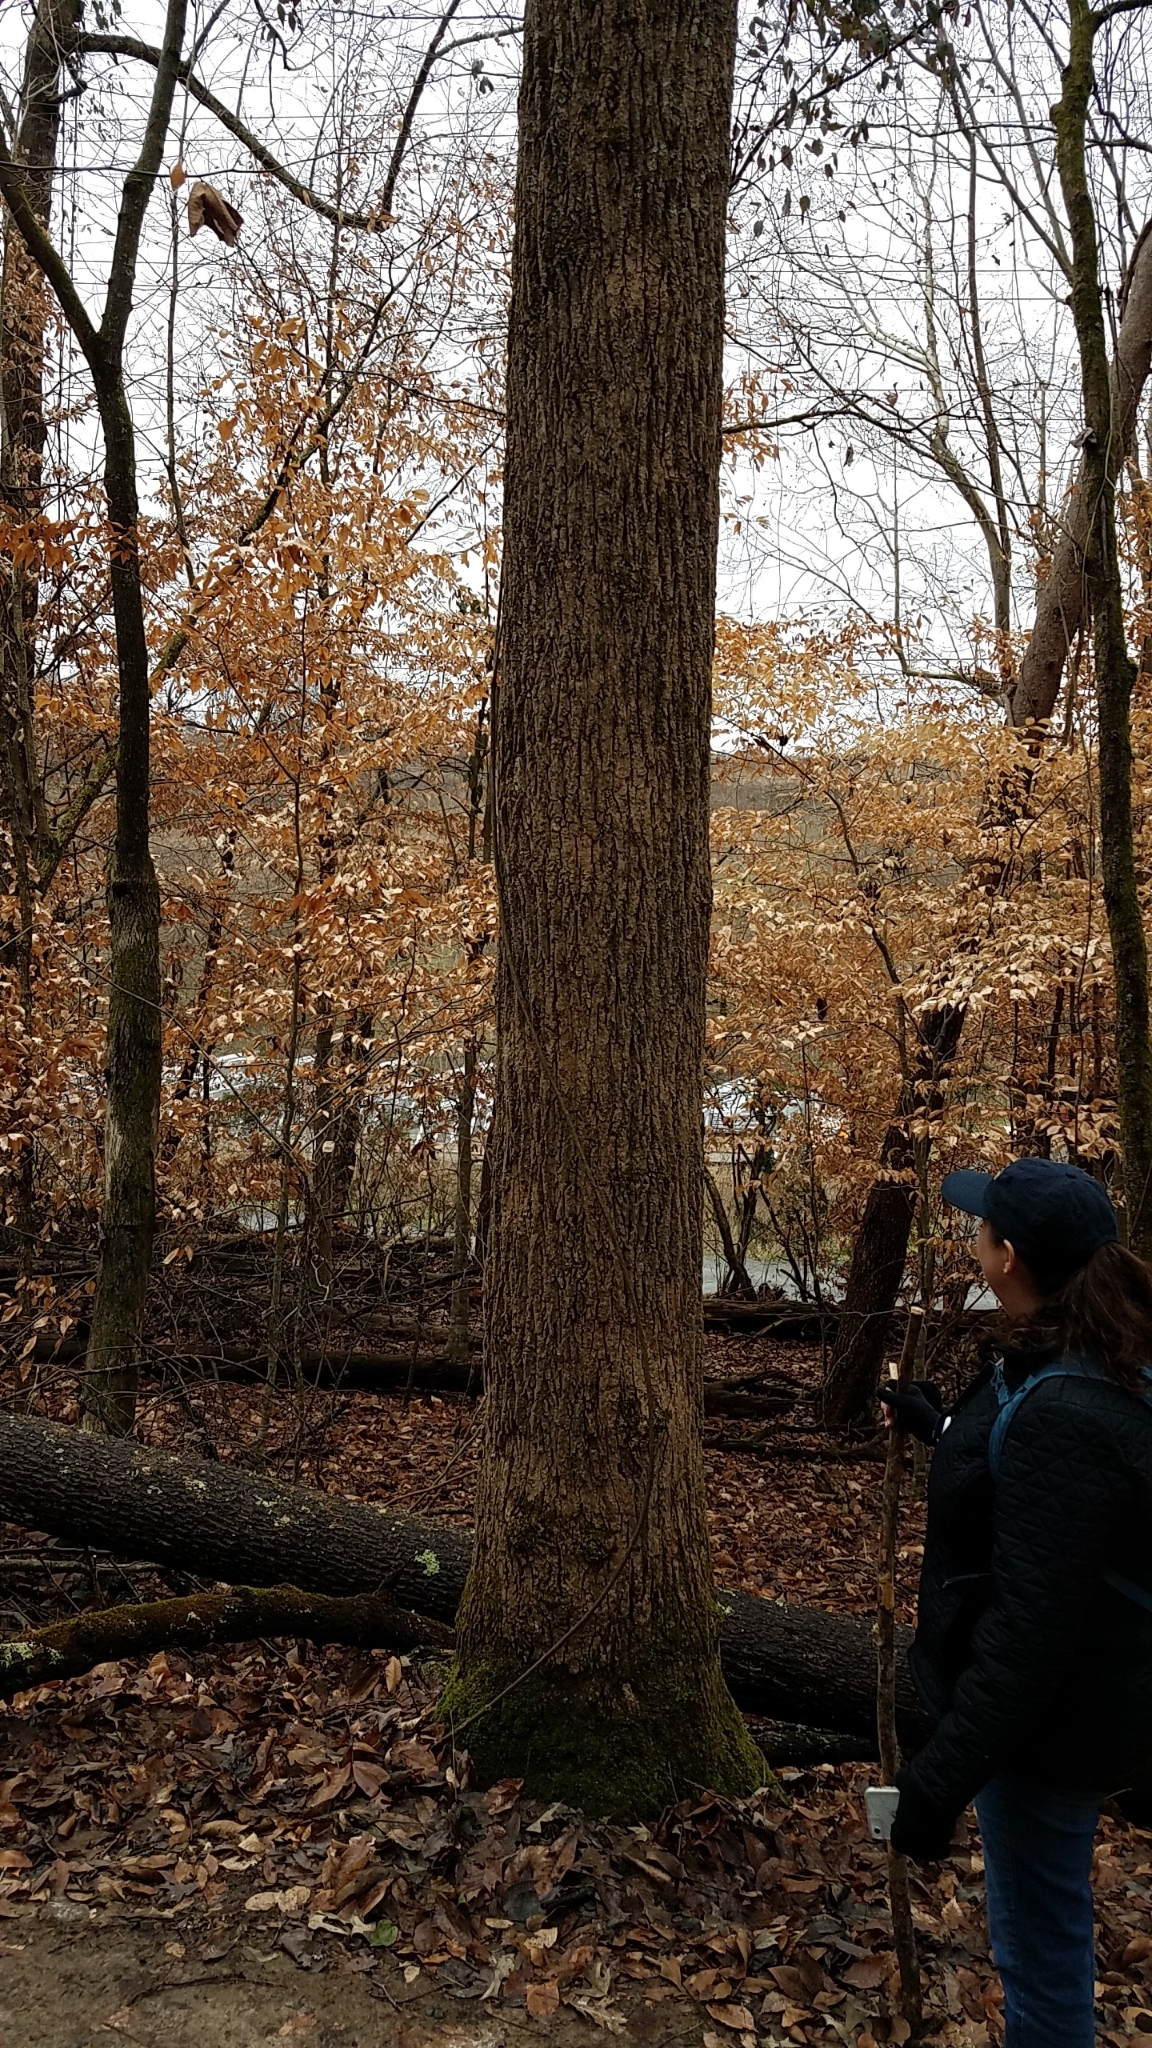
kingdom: Plantae
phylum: Tracheophyta
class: Magnoliopsida
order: Magnoliales
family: Magnoliaceae
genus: Liriodendron
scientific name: Liriodendron tulipifera
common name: Tulip tree
